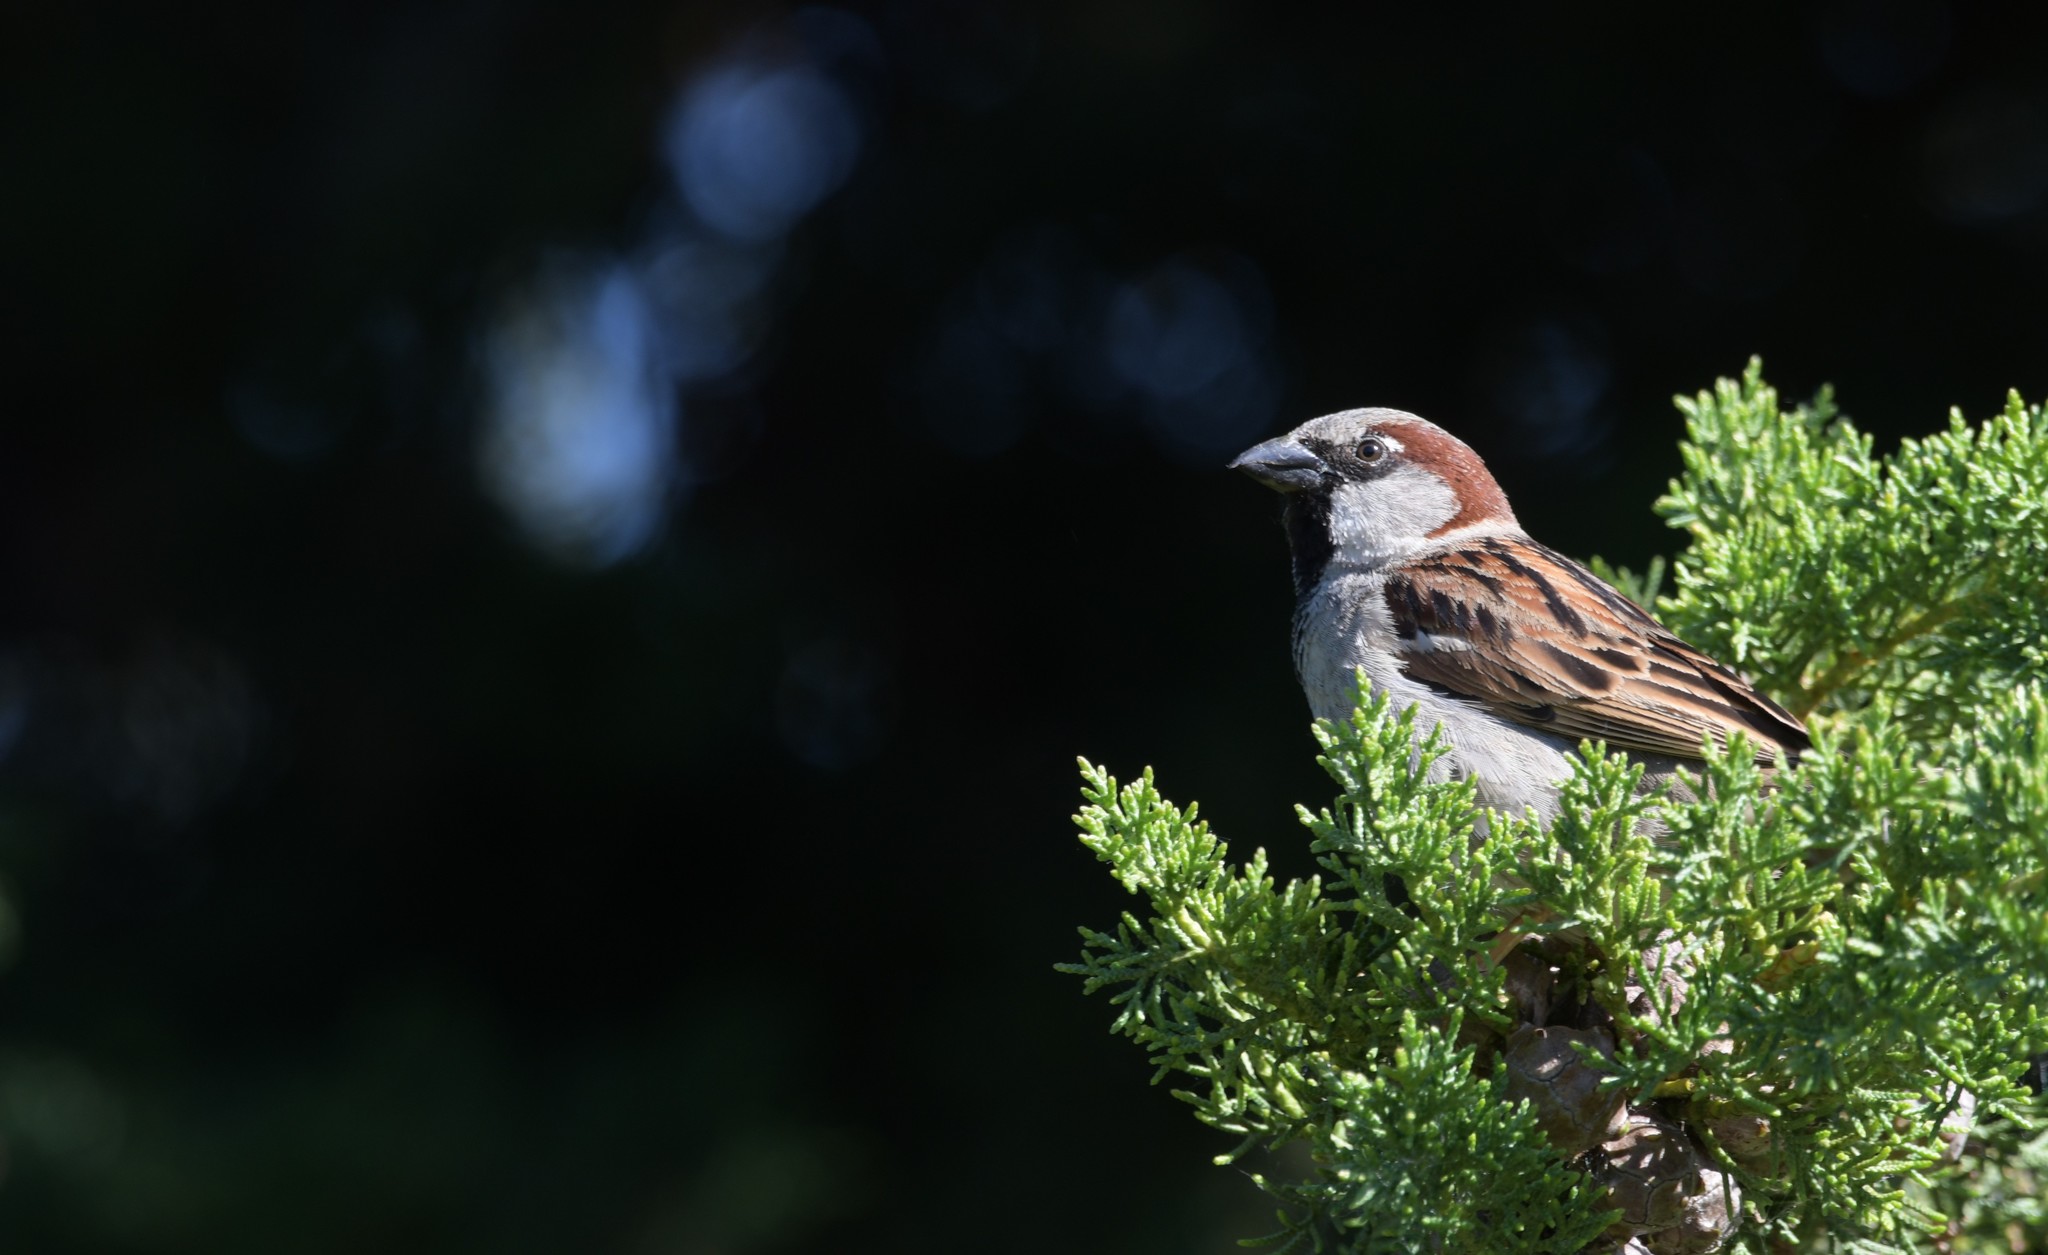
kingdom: Animalia
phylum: Chordata
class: Aves
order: Passeriformes
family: Passeridae
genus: Passer
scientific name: Passer domesticus
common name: House sparrow
